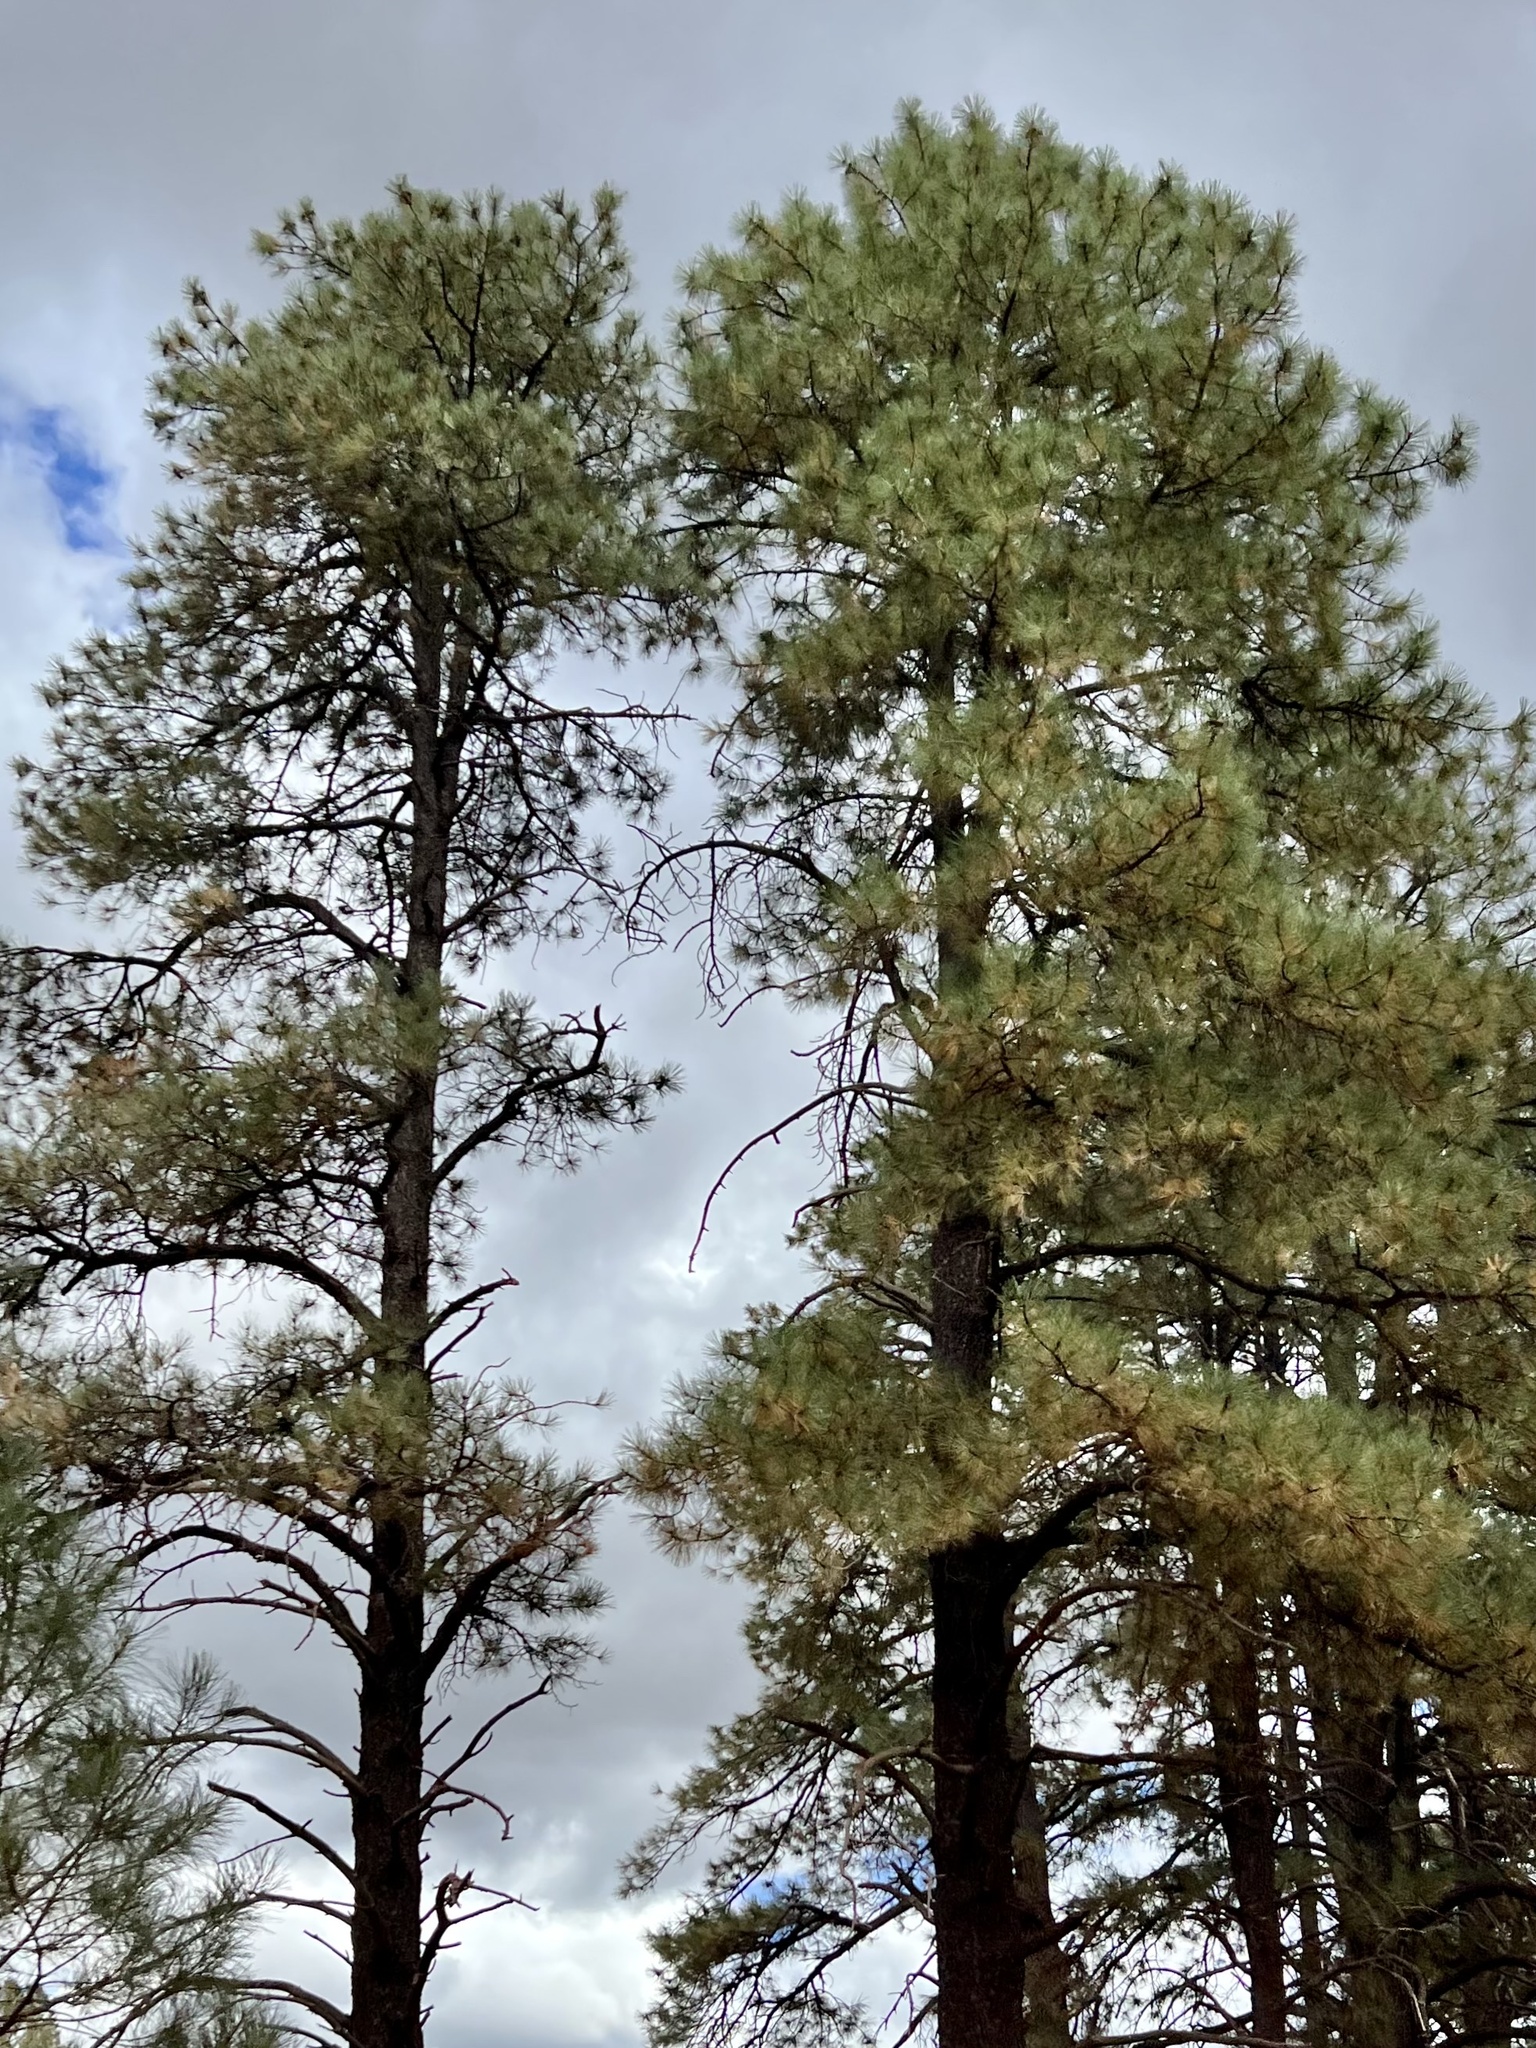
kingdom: Plantae
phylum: Tracheophyta
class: Pinopsida
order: Pinales
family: Pinaceae
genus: Pinus
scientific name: Pinus ponderosa
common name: Western yellow-pine
